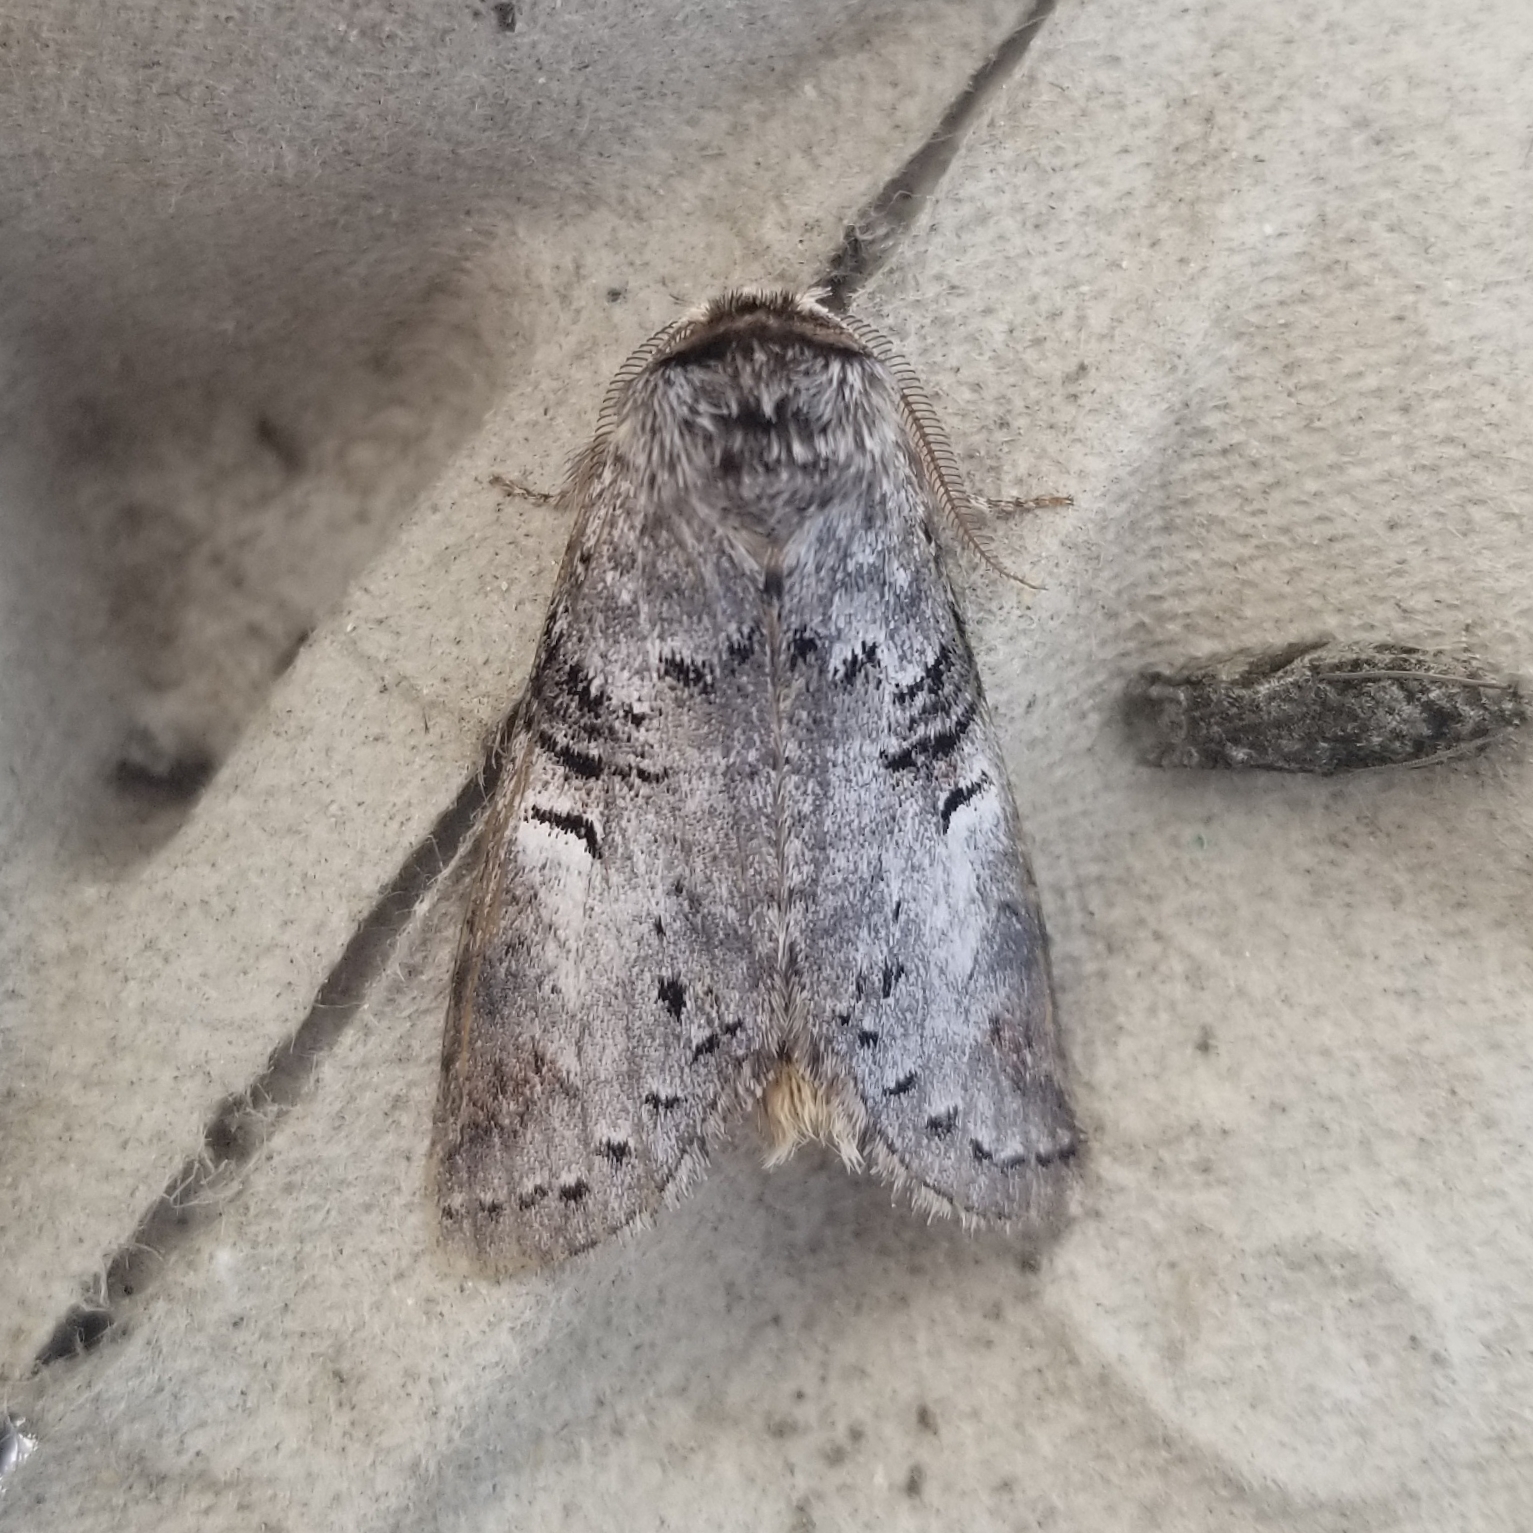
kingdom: Animalia
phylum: Arthropoda
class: Insecta
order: Lepidoptera
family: Notodontidae
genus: Ellida
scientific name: Ellida caniplaga
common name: Linden prominent
